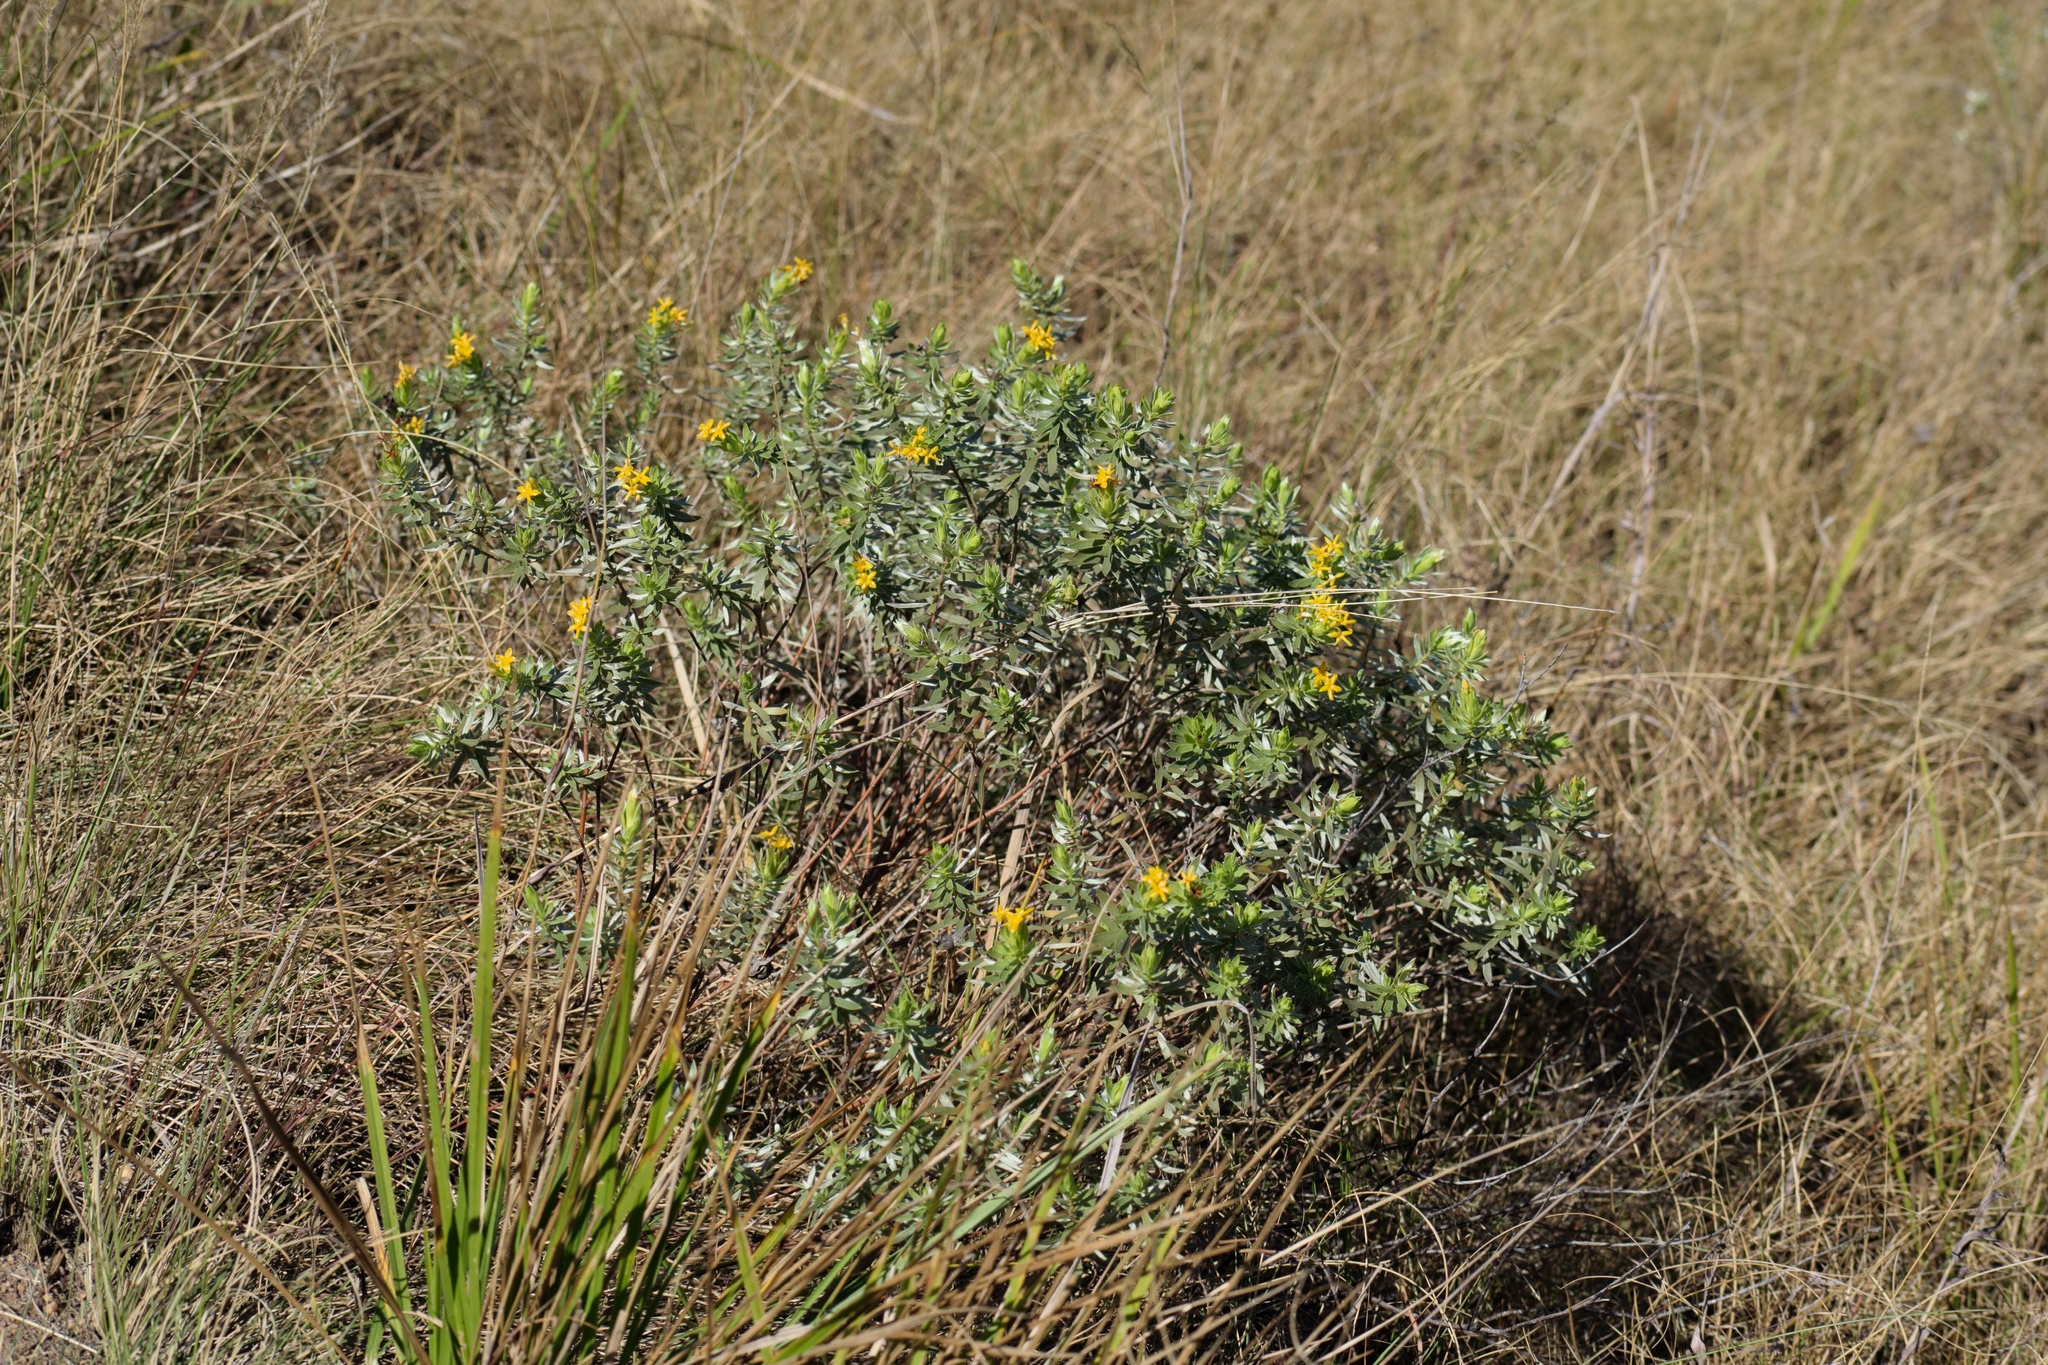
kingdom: Plantae
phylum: Tracheophyta
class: Magnoliopsida
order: Malvales
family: Thymelaeaceae
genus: Gnidia
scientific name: Gnidia splendens
